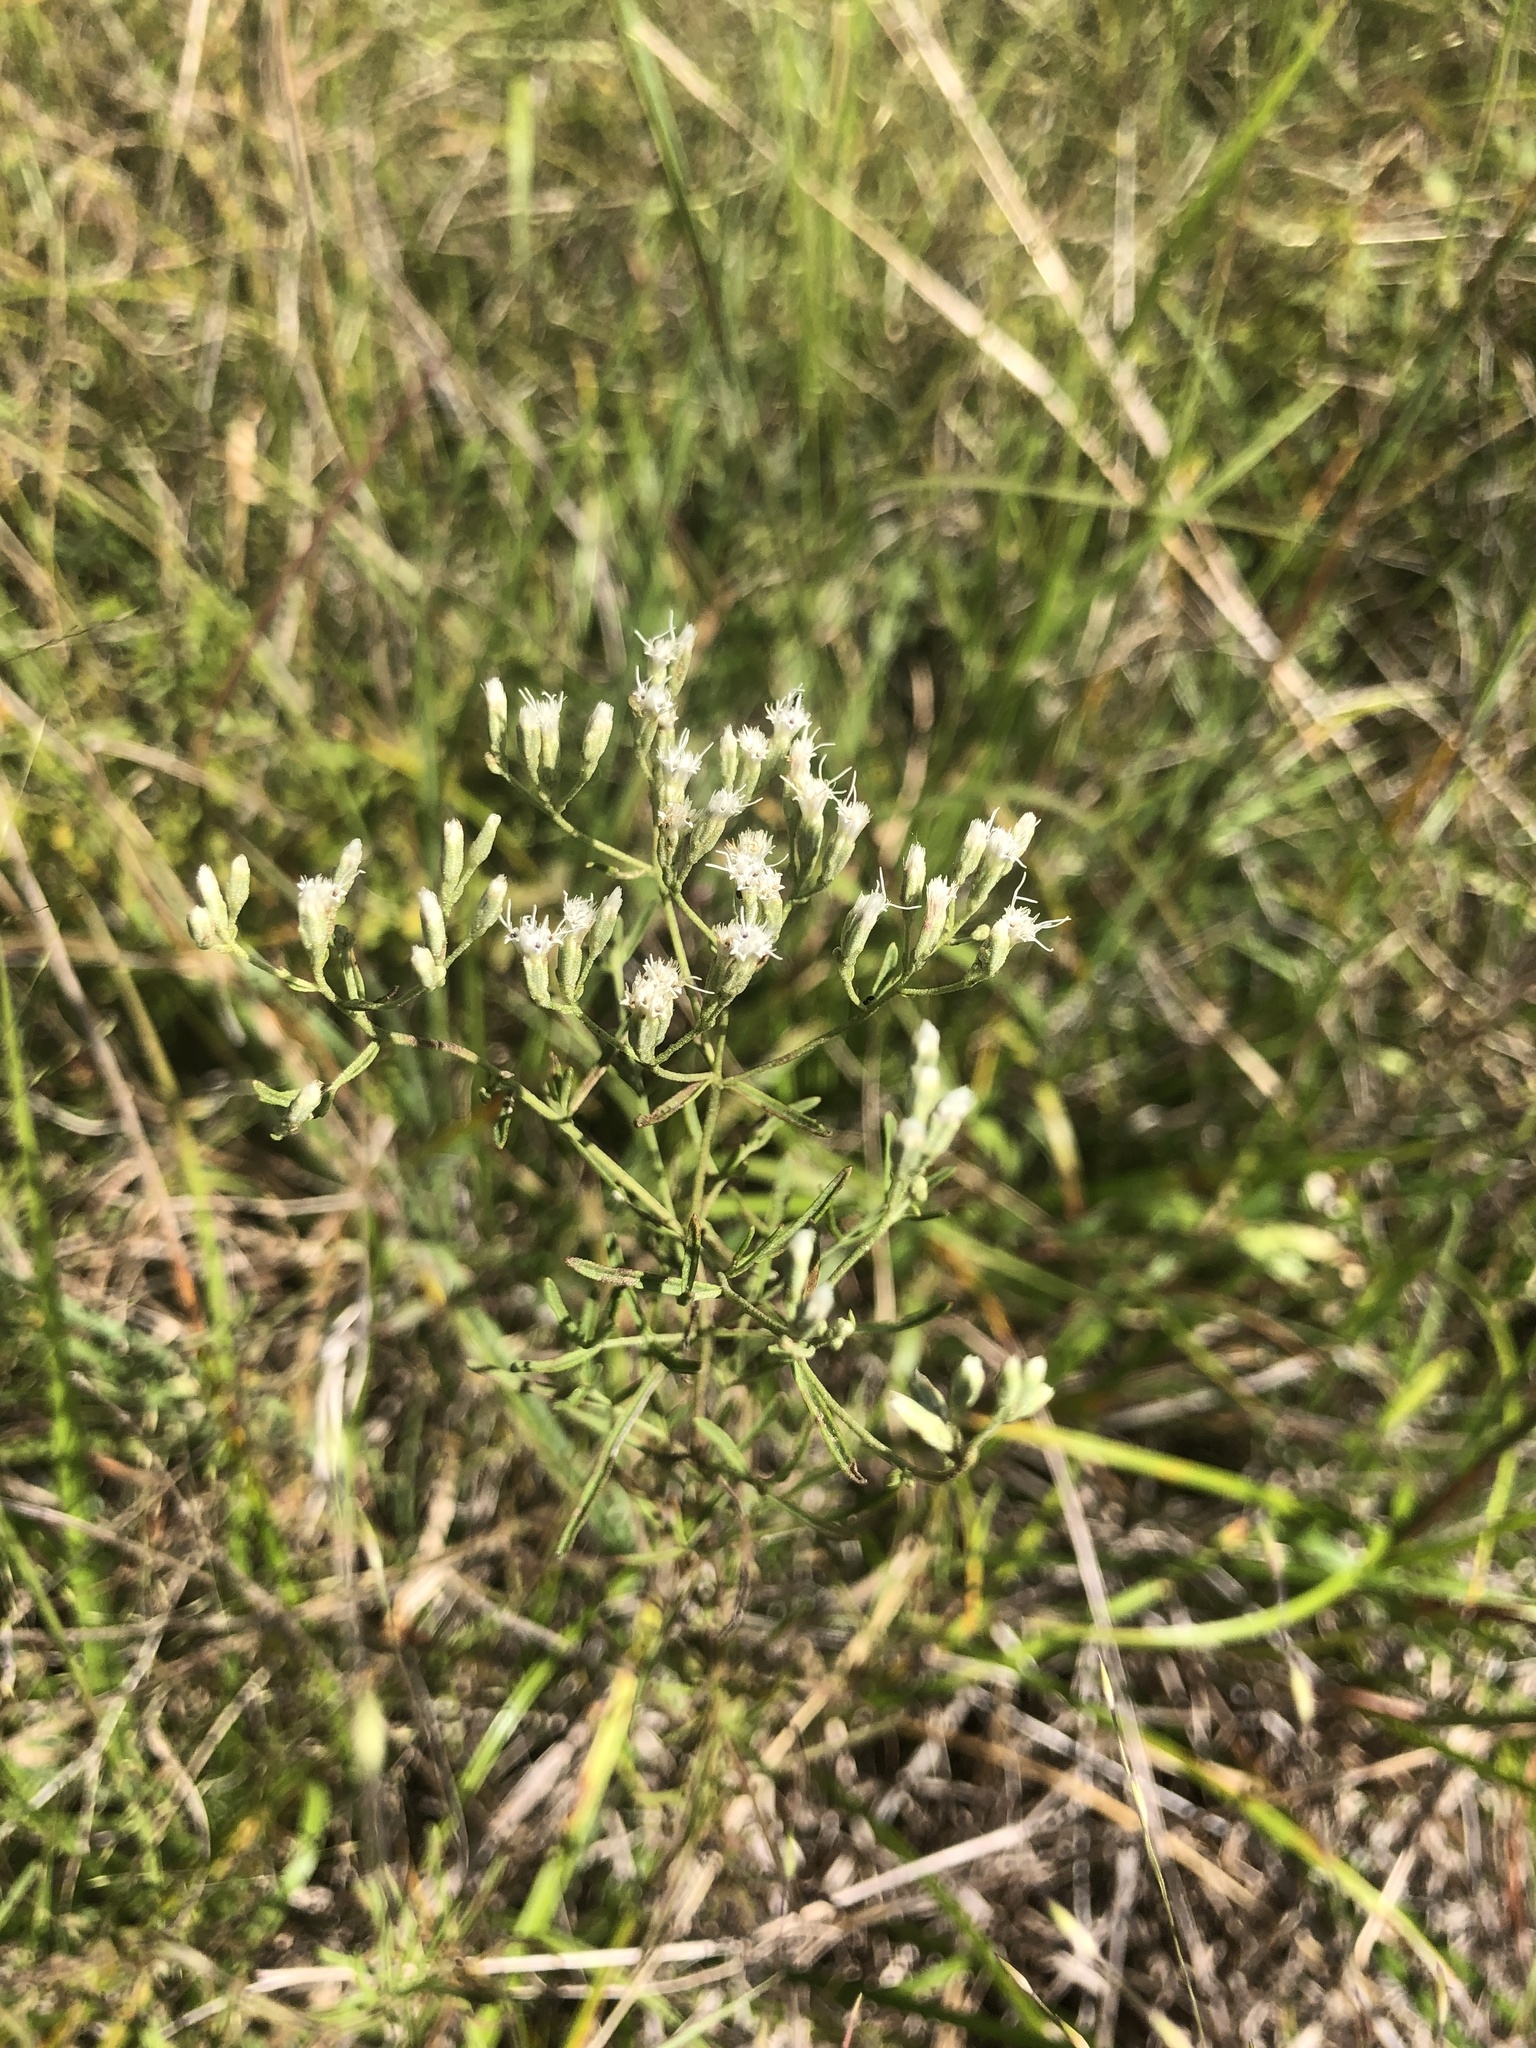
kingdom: Plantae
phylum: Tracheophyta
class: Magnoliopsida
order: Asterales
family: Asteraceae
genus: Eupatorium
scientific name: Eupatorium hyssopifolium
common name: Hyssop-leaf thoroughwort
